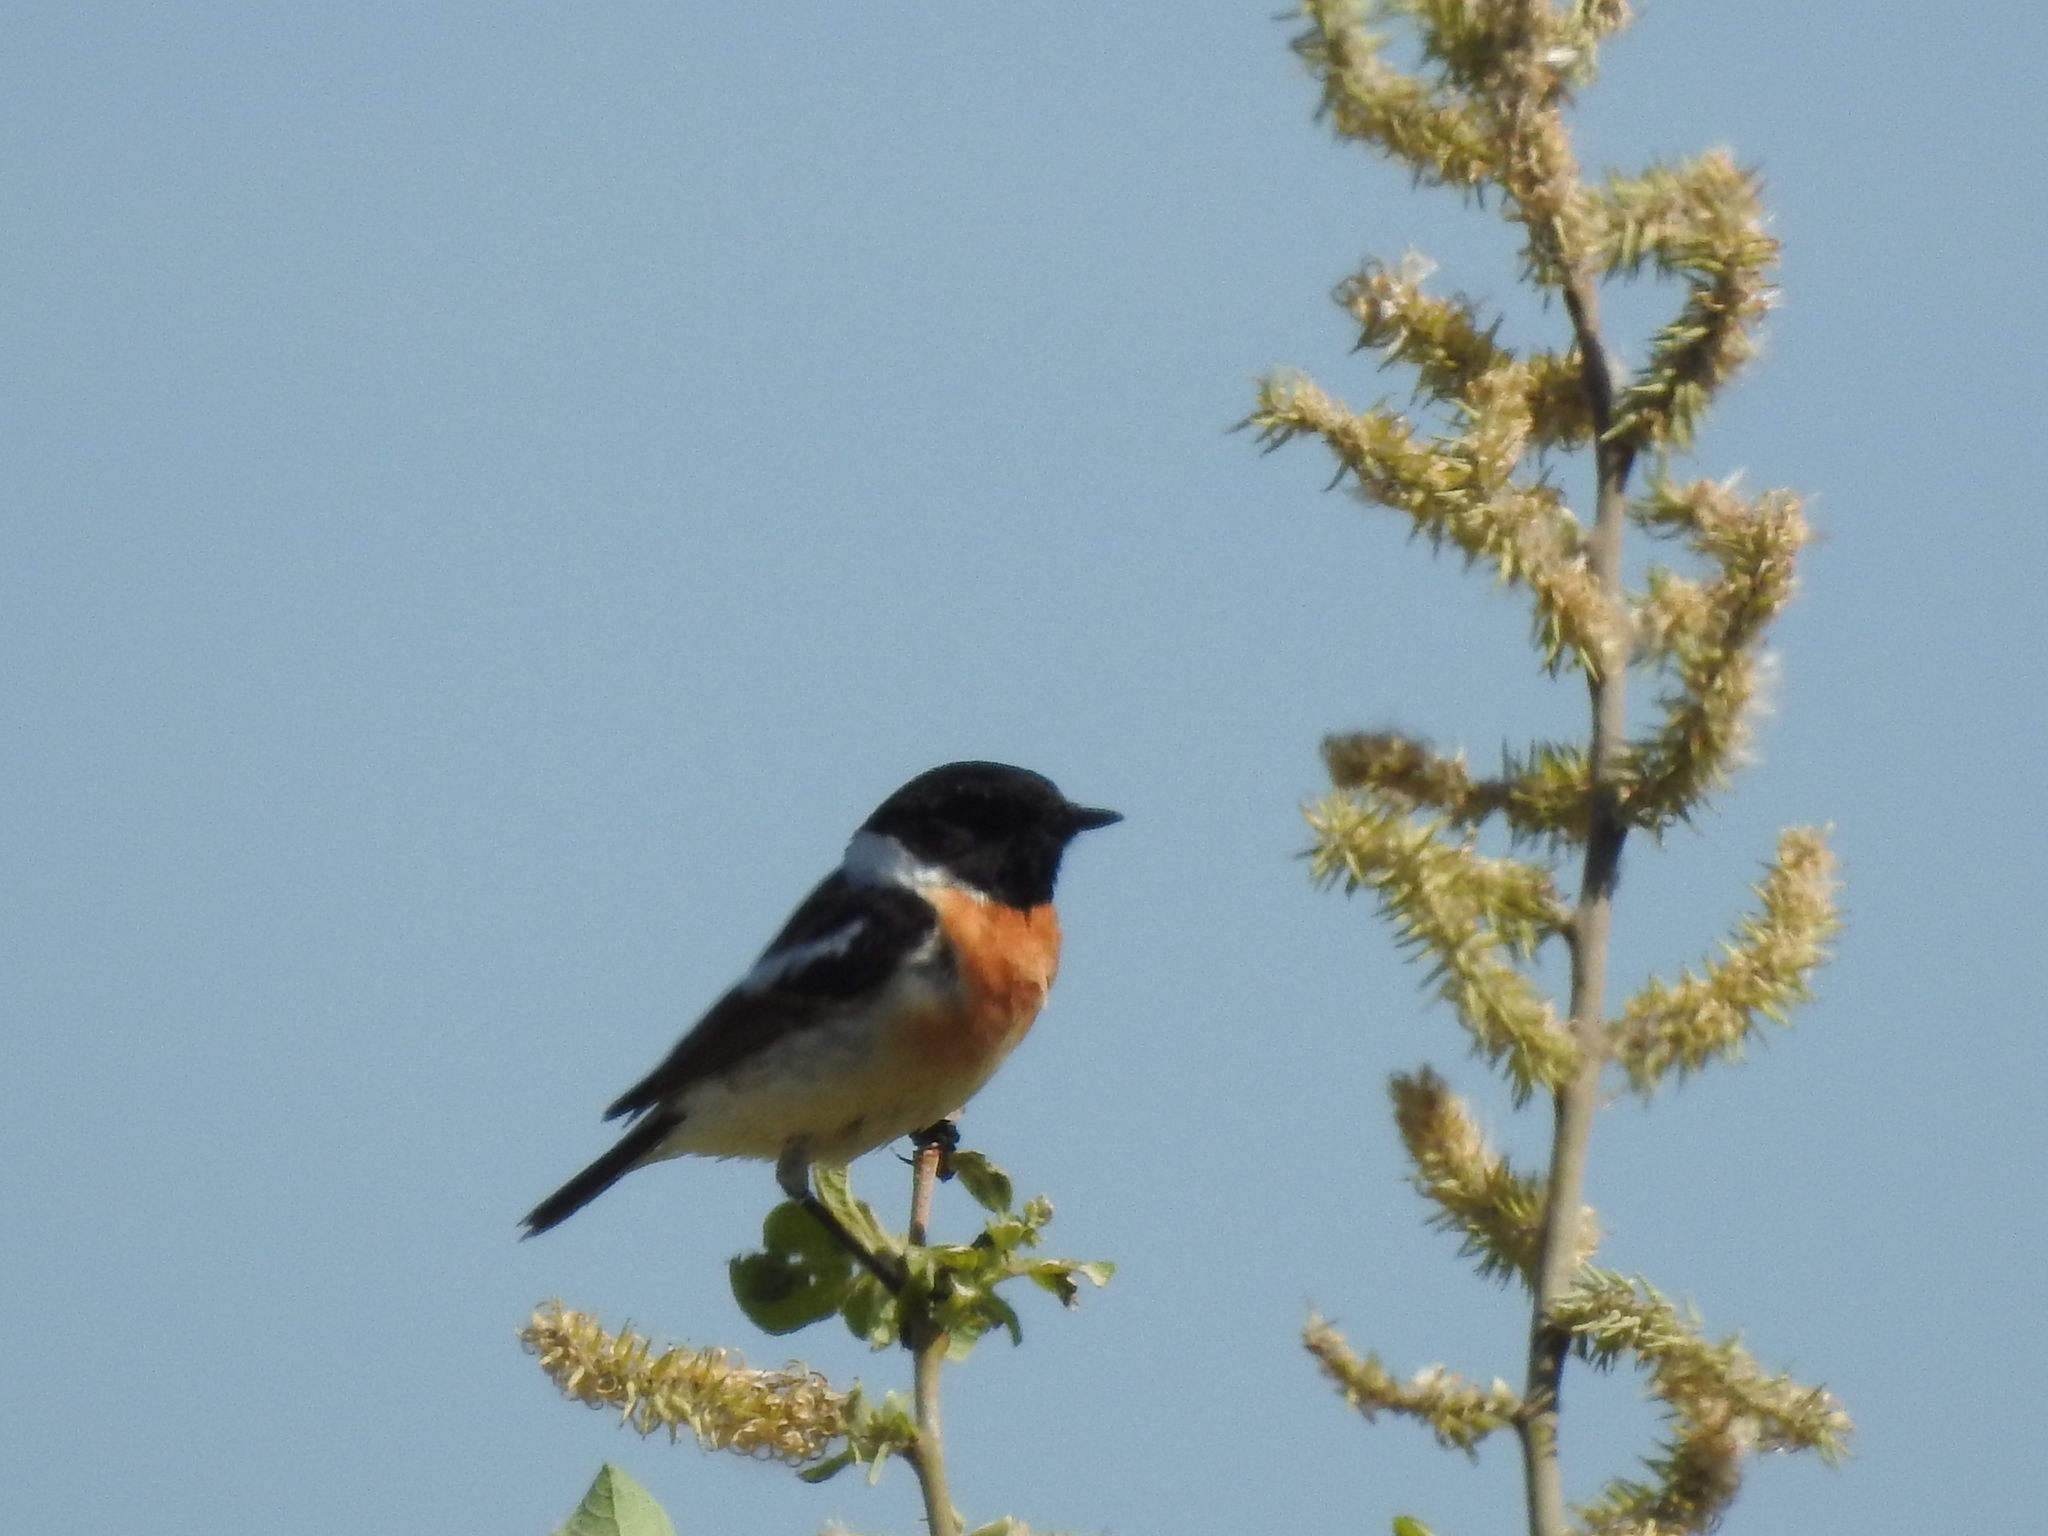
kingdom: Animalia
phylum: Chordata
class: Aves
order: Passeriformes
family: Muscicapidae
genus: Saxicola
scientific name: Saxicola maurus
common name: Siberian stonechat
